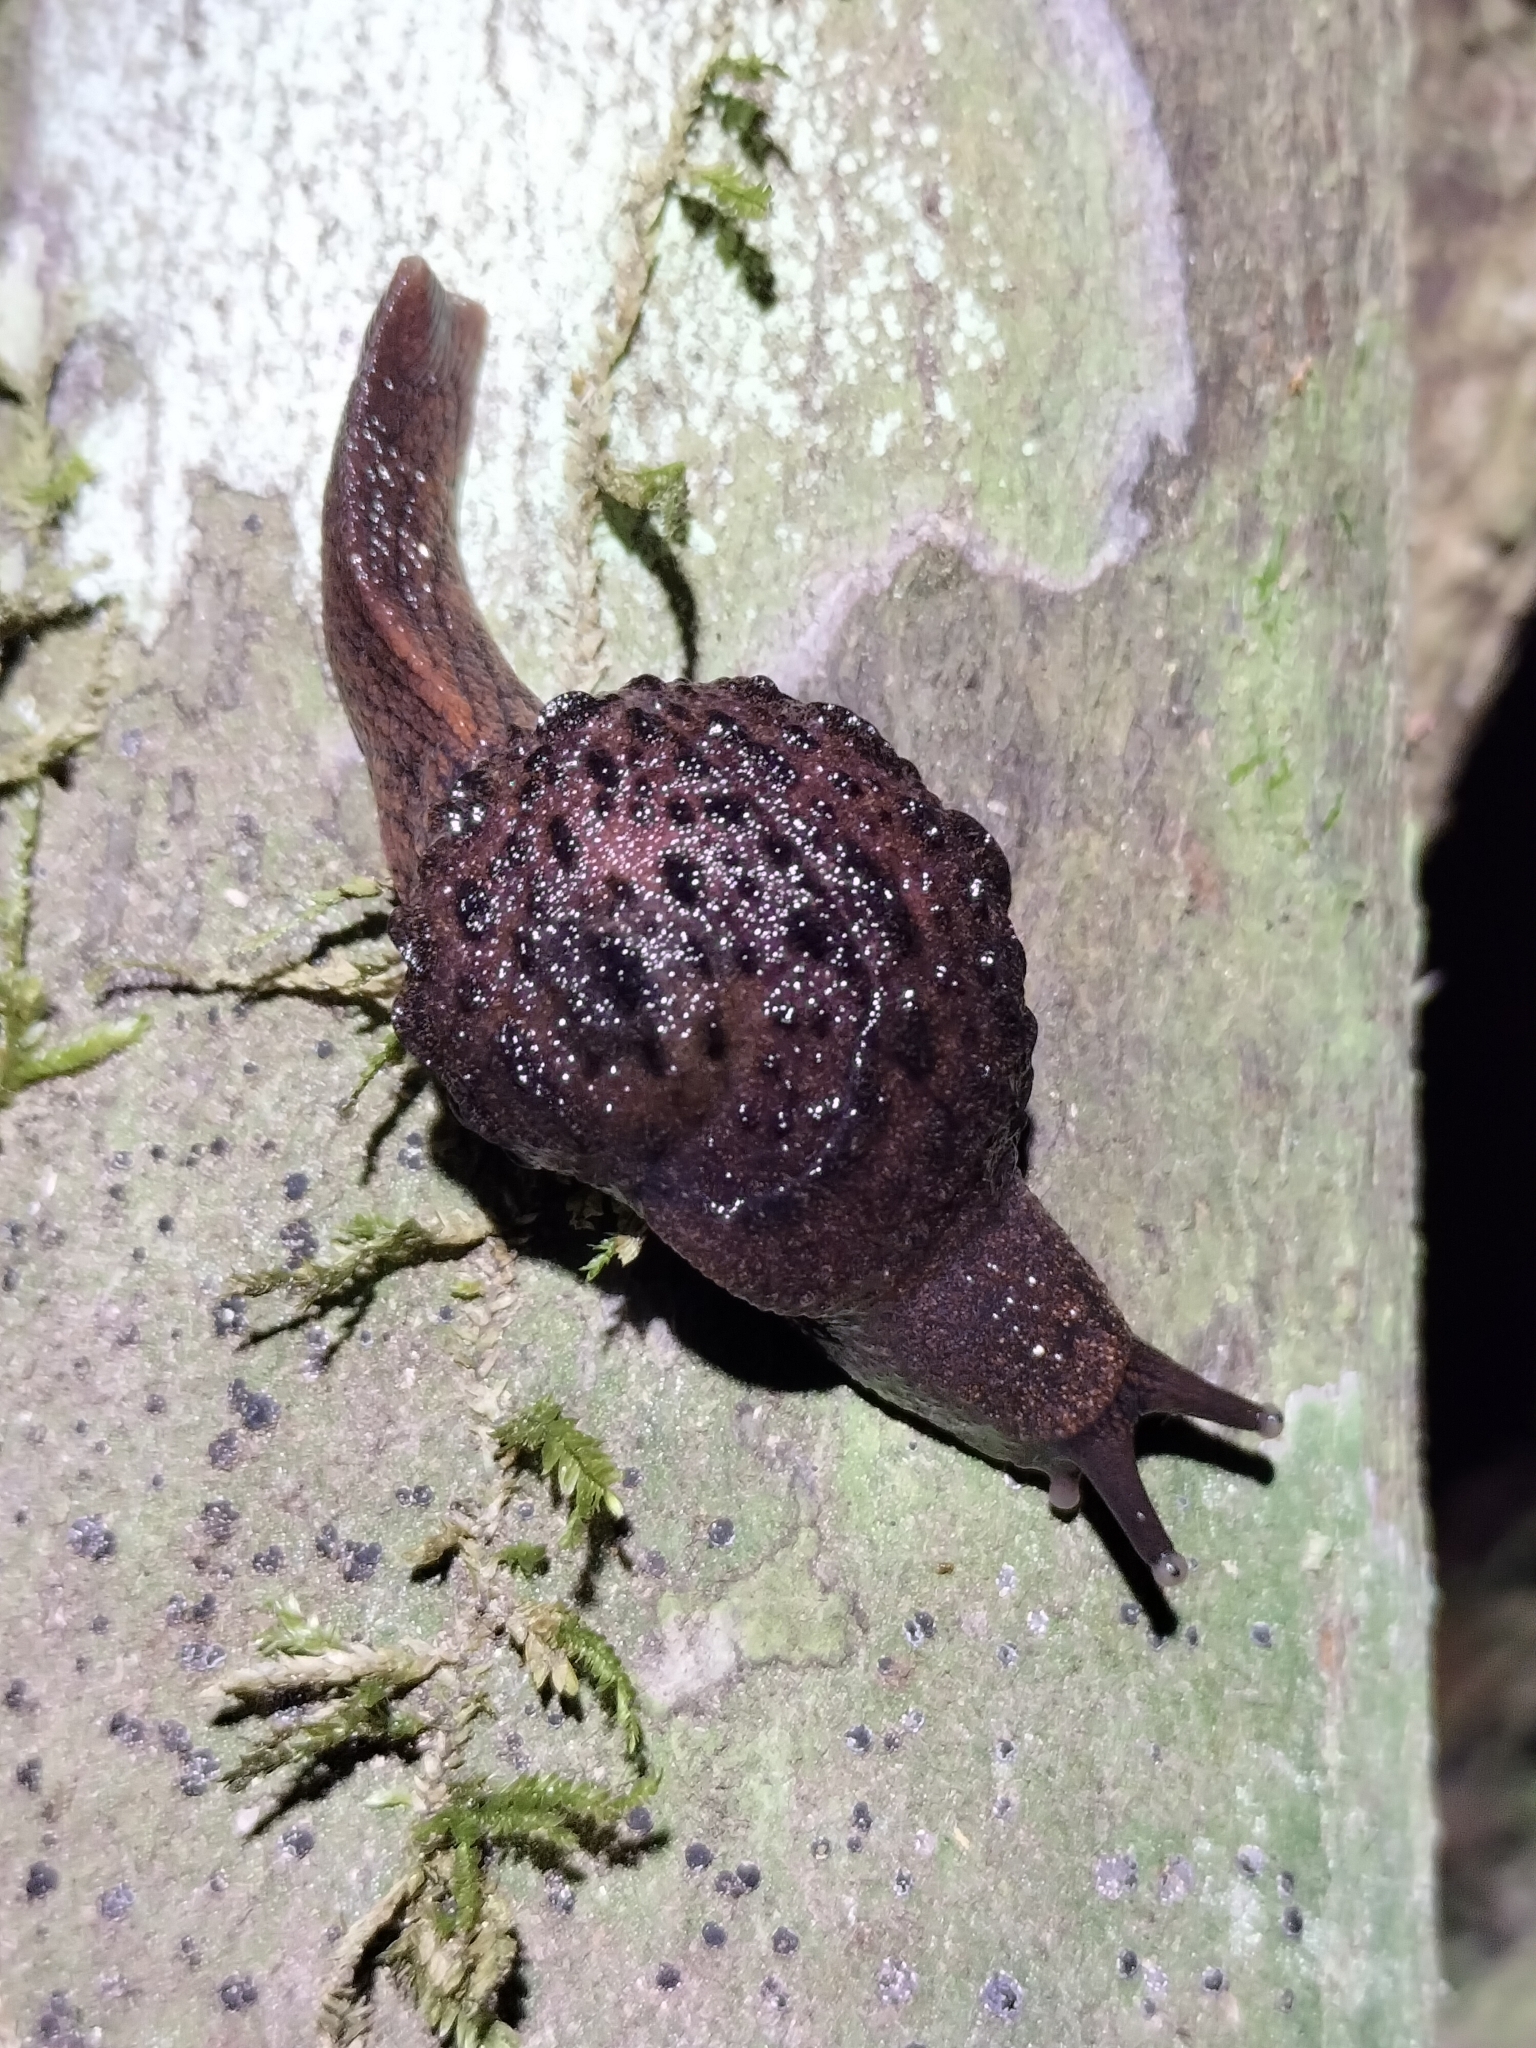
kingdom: Animalia
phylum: Mollusca
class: Gastropoda
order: Stylommatophora
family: Helicarionidae
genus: Fastosarion
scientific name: Fastosarion brazieri
